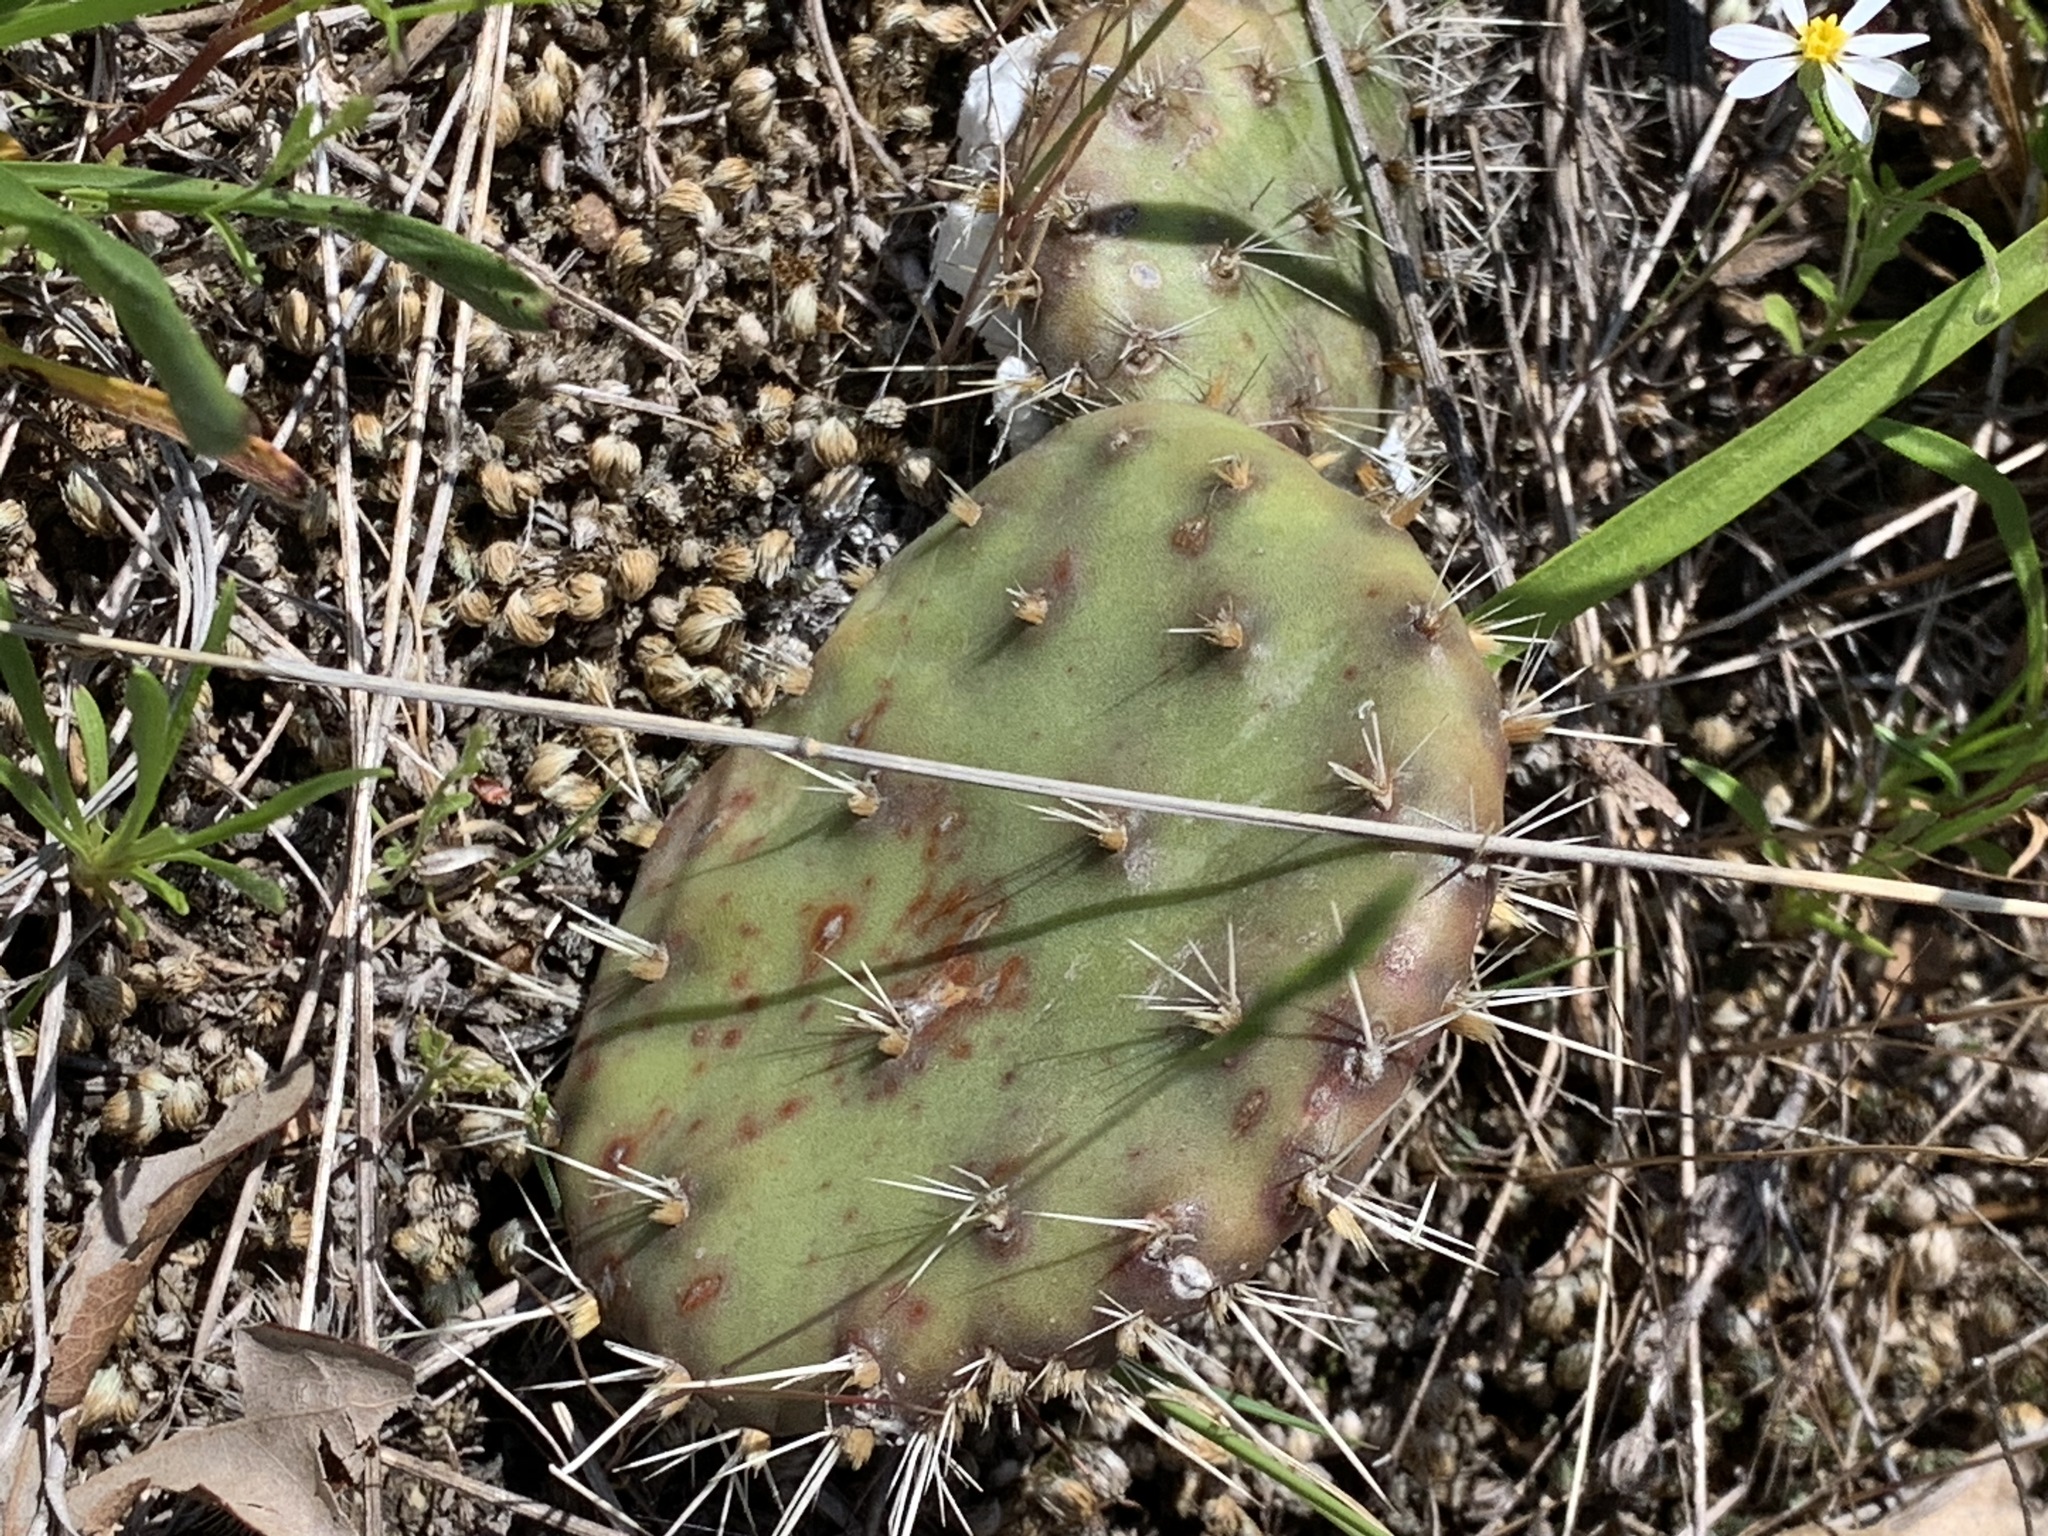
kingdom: Plantae
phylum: Tracheophyta
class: Magnoliopsida
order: Caryophyllales
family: Cactaceae
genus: Opuntia
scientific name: Opuntia macrorhiza
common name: Grassland pricklypear
